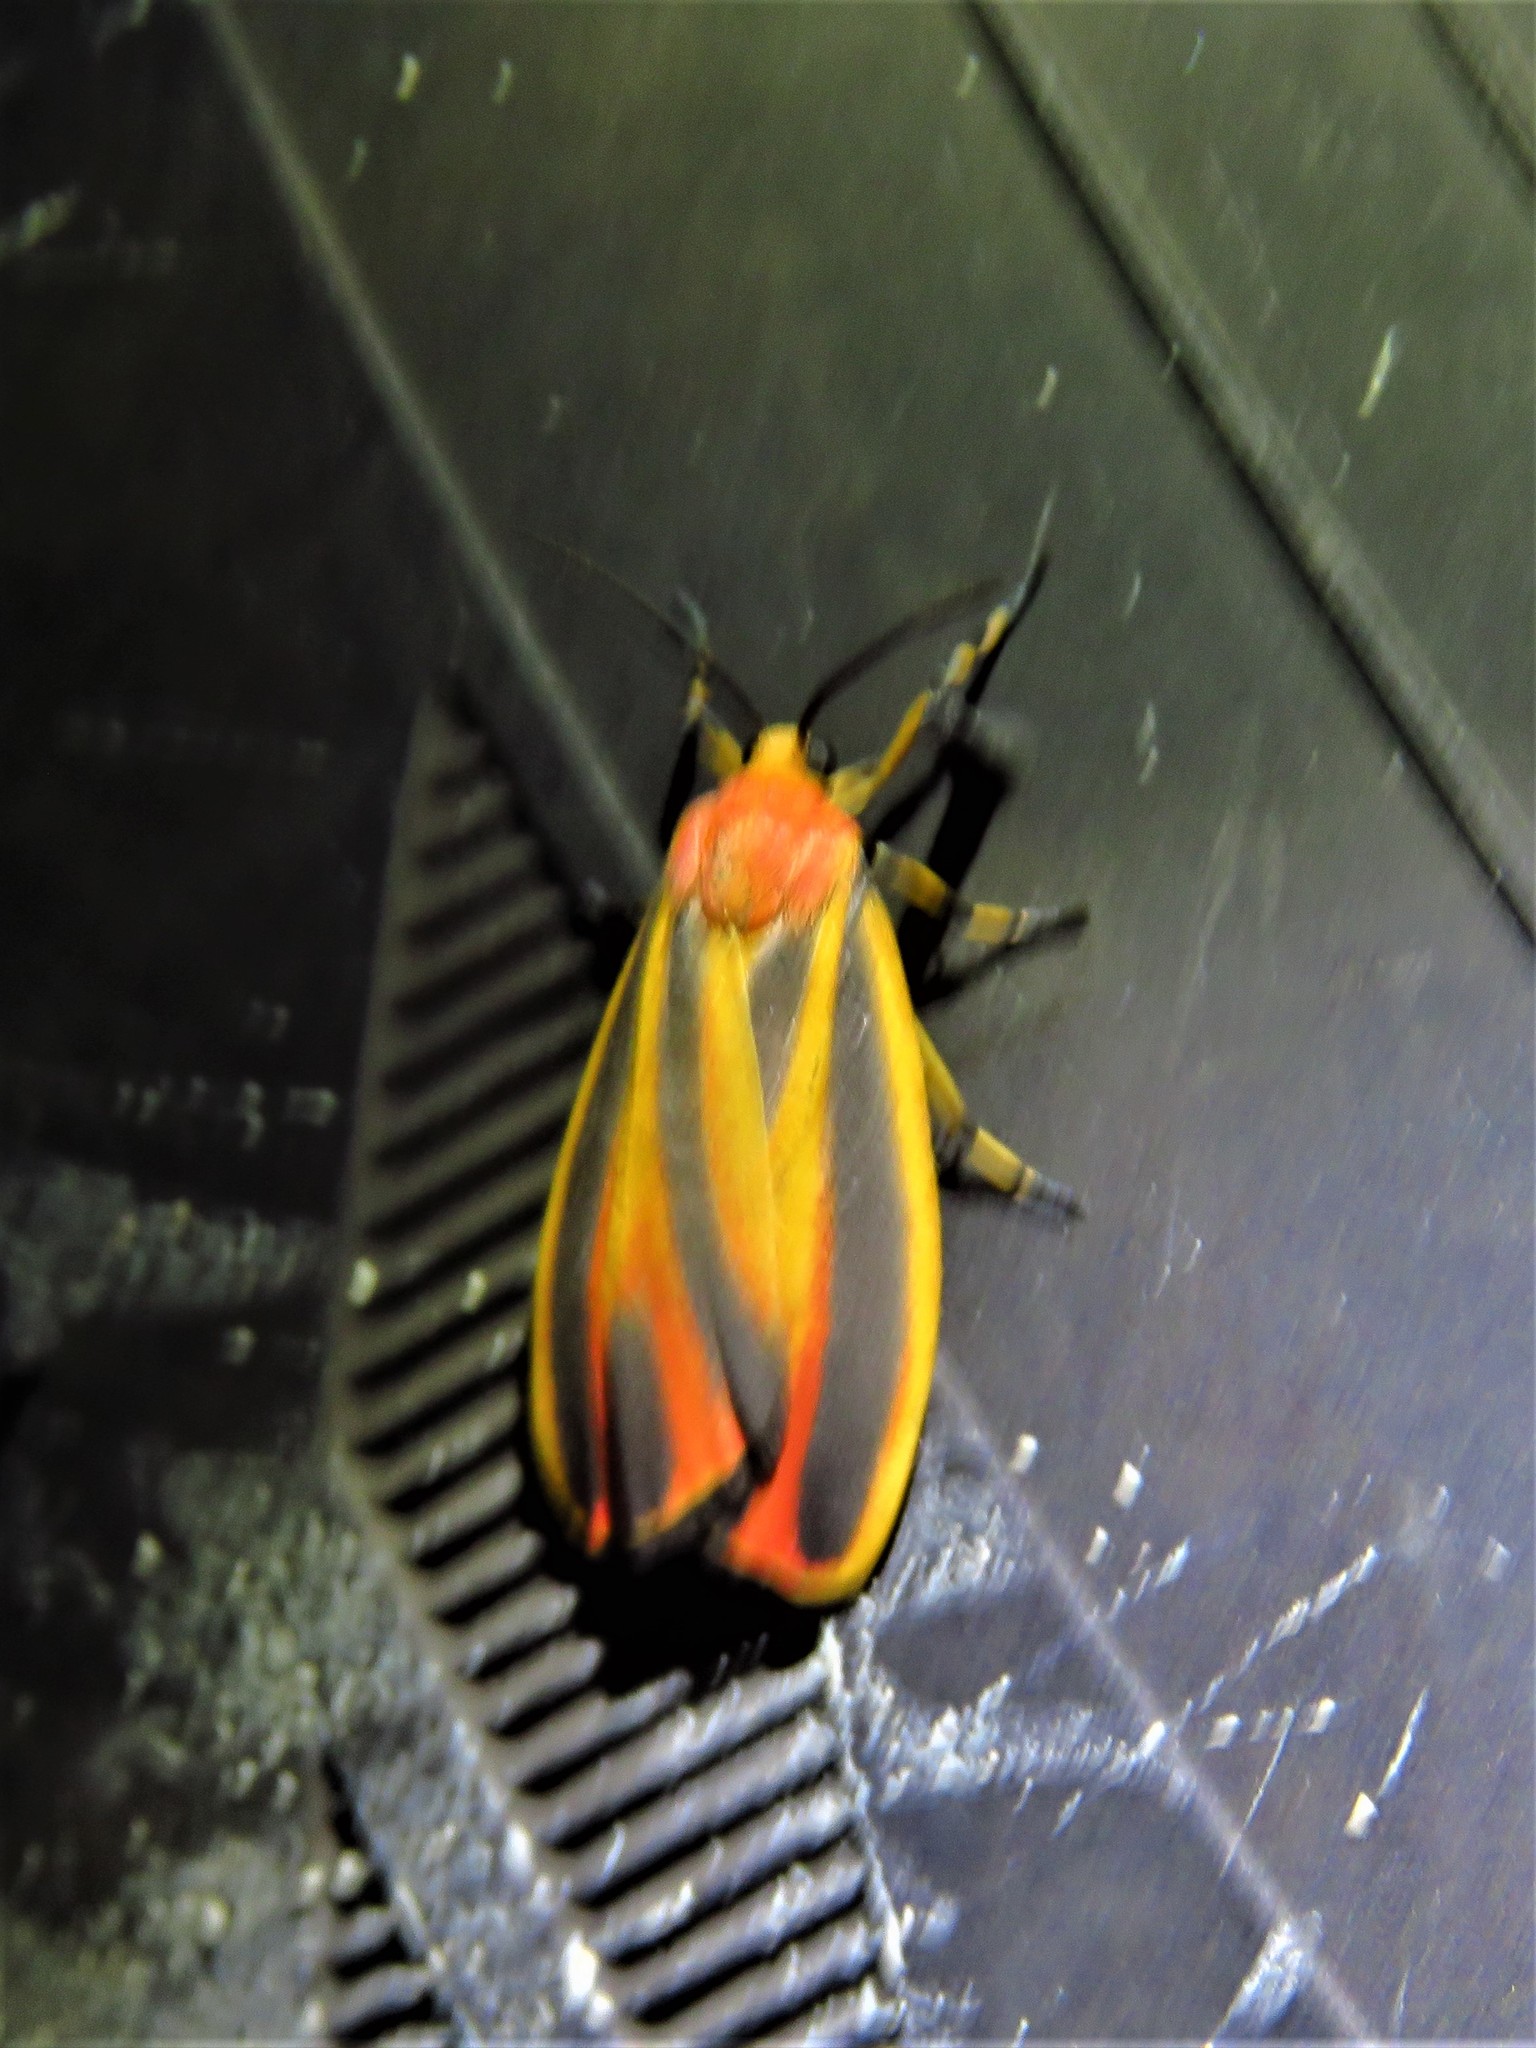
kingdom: Animalia
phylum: Arthropoda
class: Insecta
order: Lepidoptera
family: Erebidae
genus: Hypoprepia
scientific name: Hypoprepia fucosa
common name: Painted lichen moth
